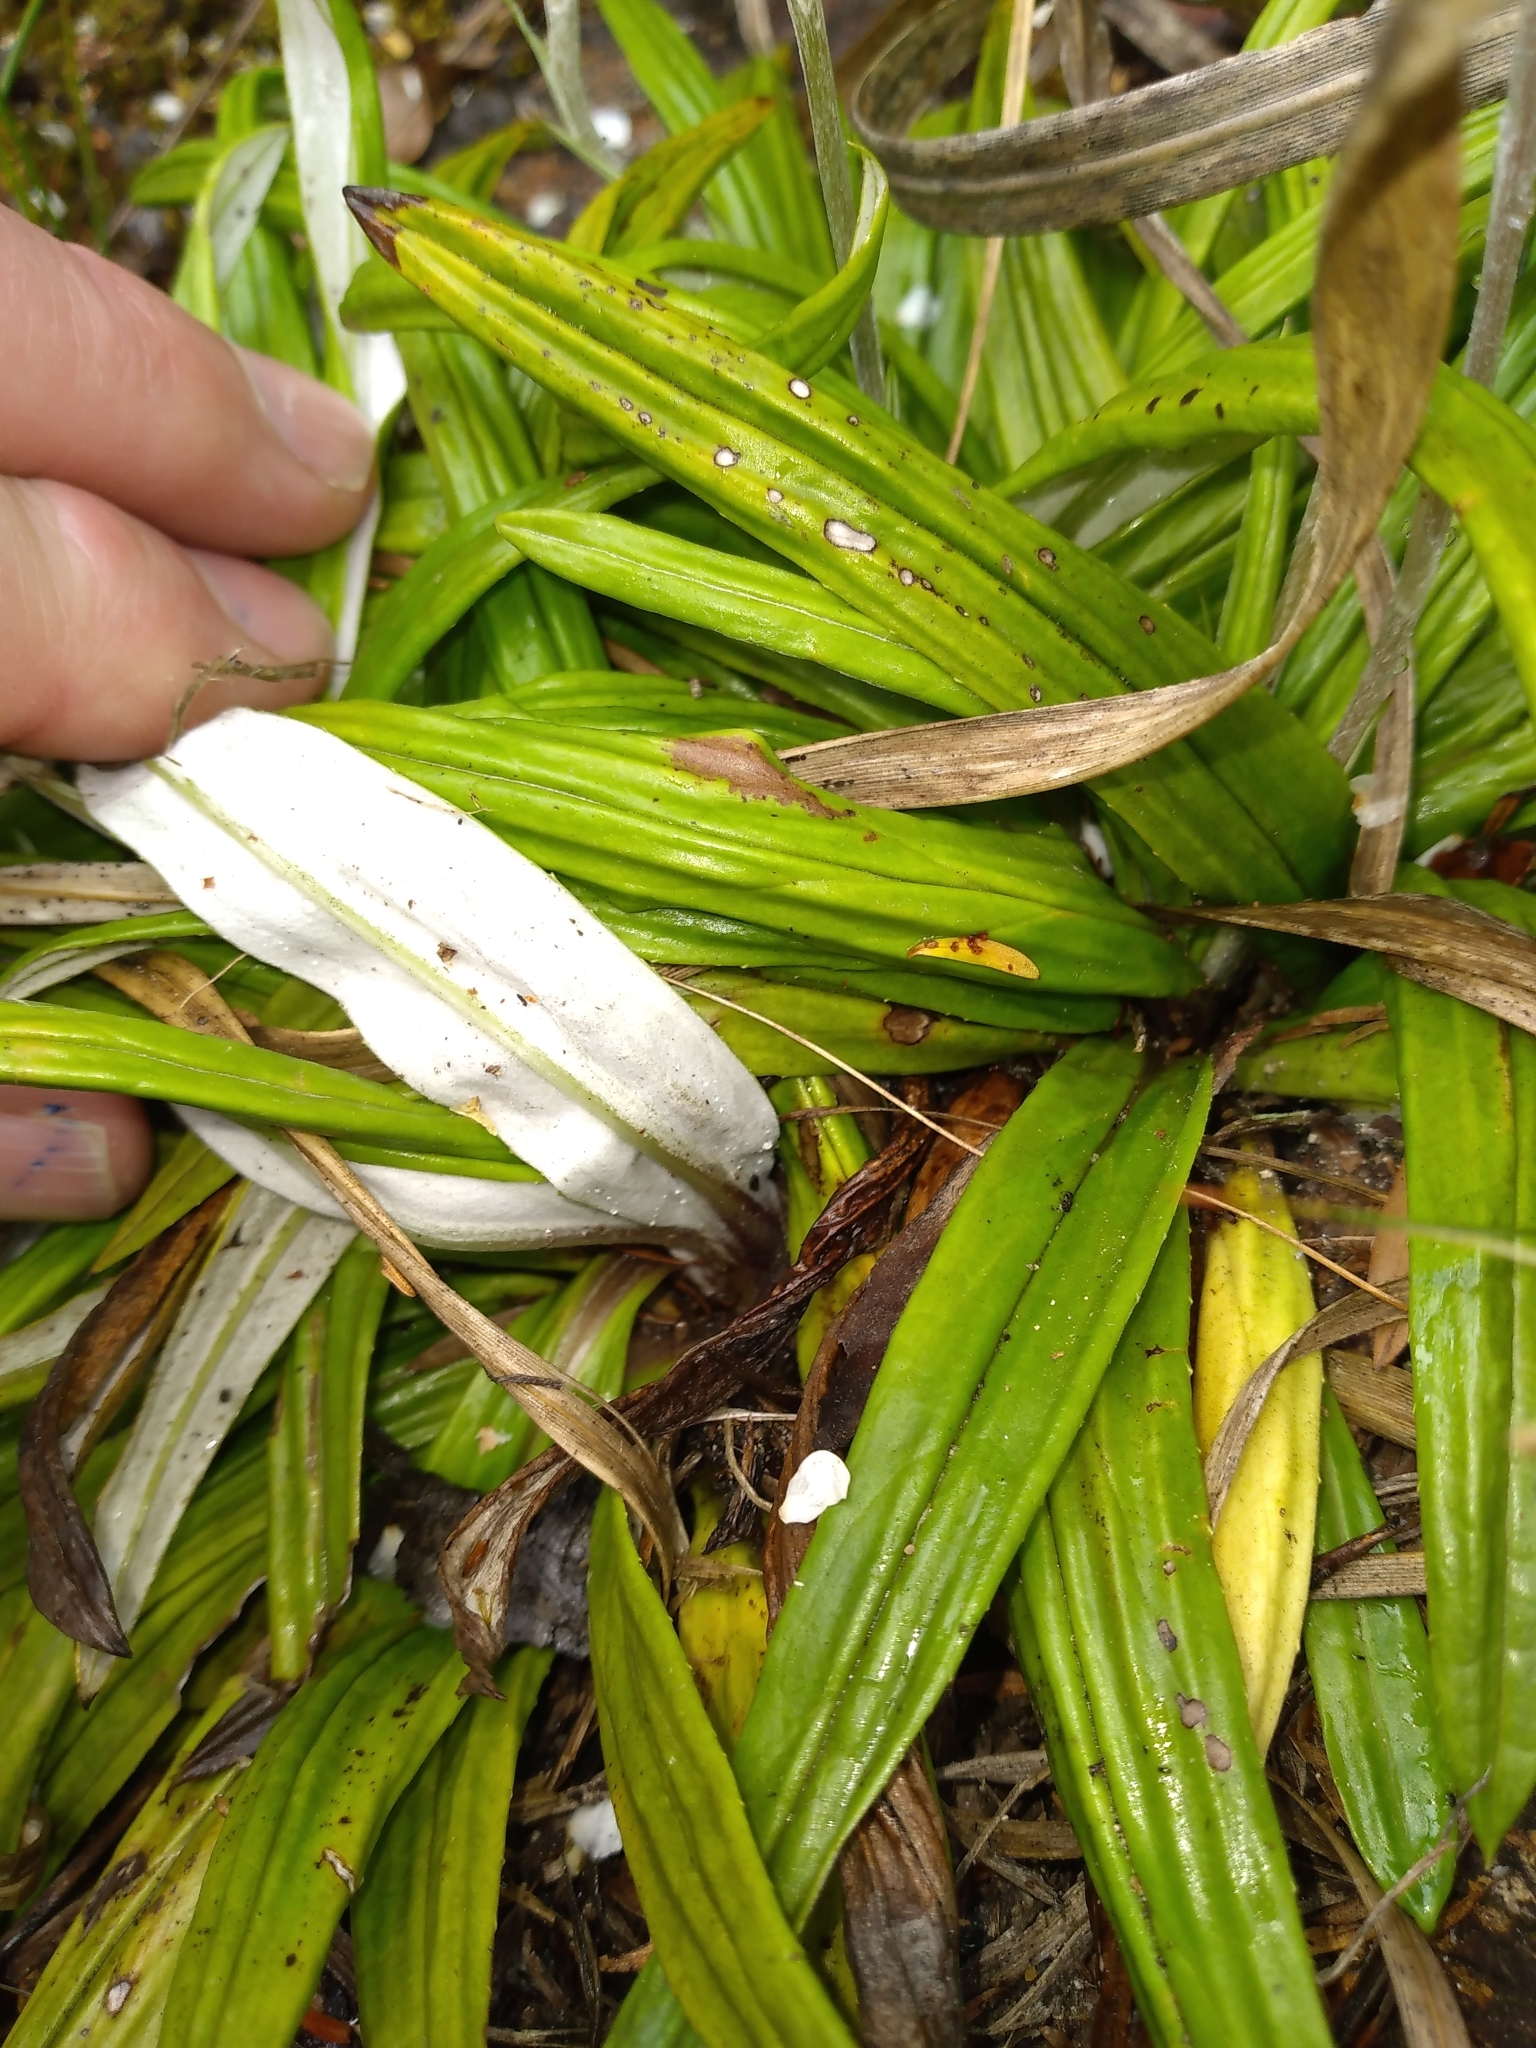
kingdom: Plantae
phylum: Tracheophyta
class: Magnoliopsida
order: Asterales
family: Asteraceae
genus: Celmisia
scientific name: Celmisia adamsii
